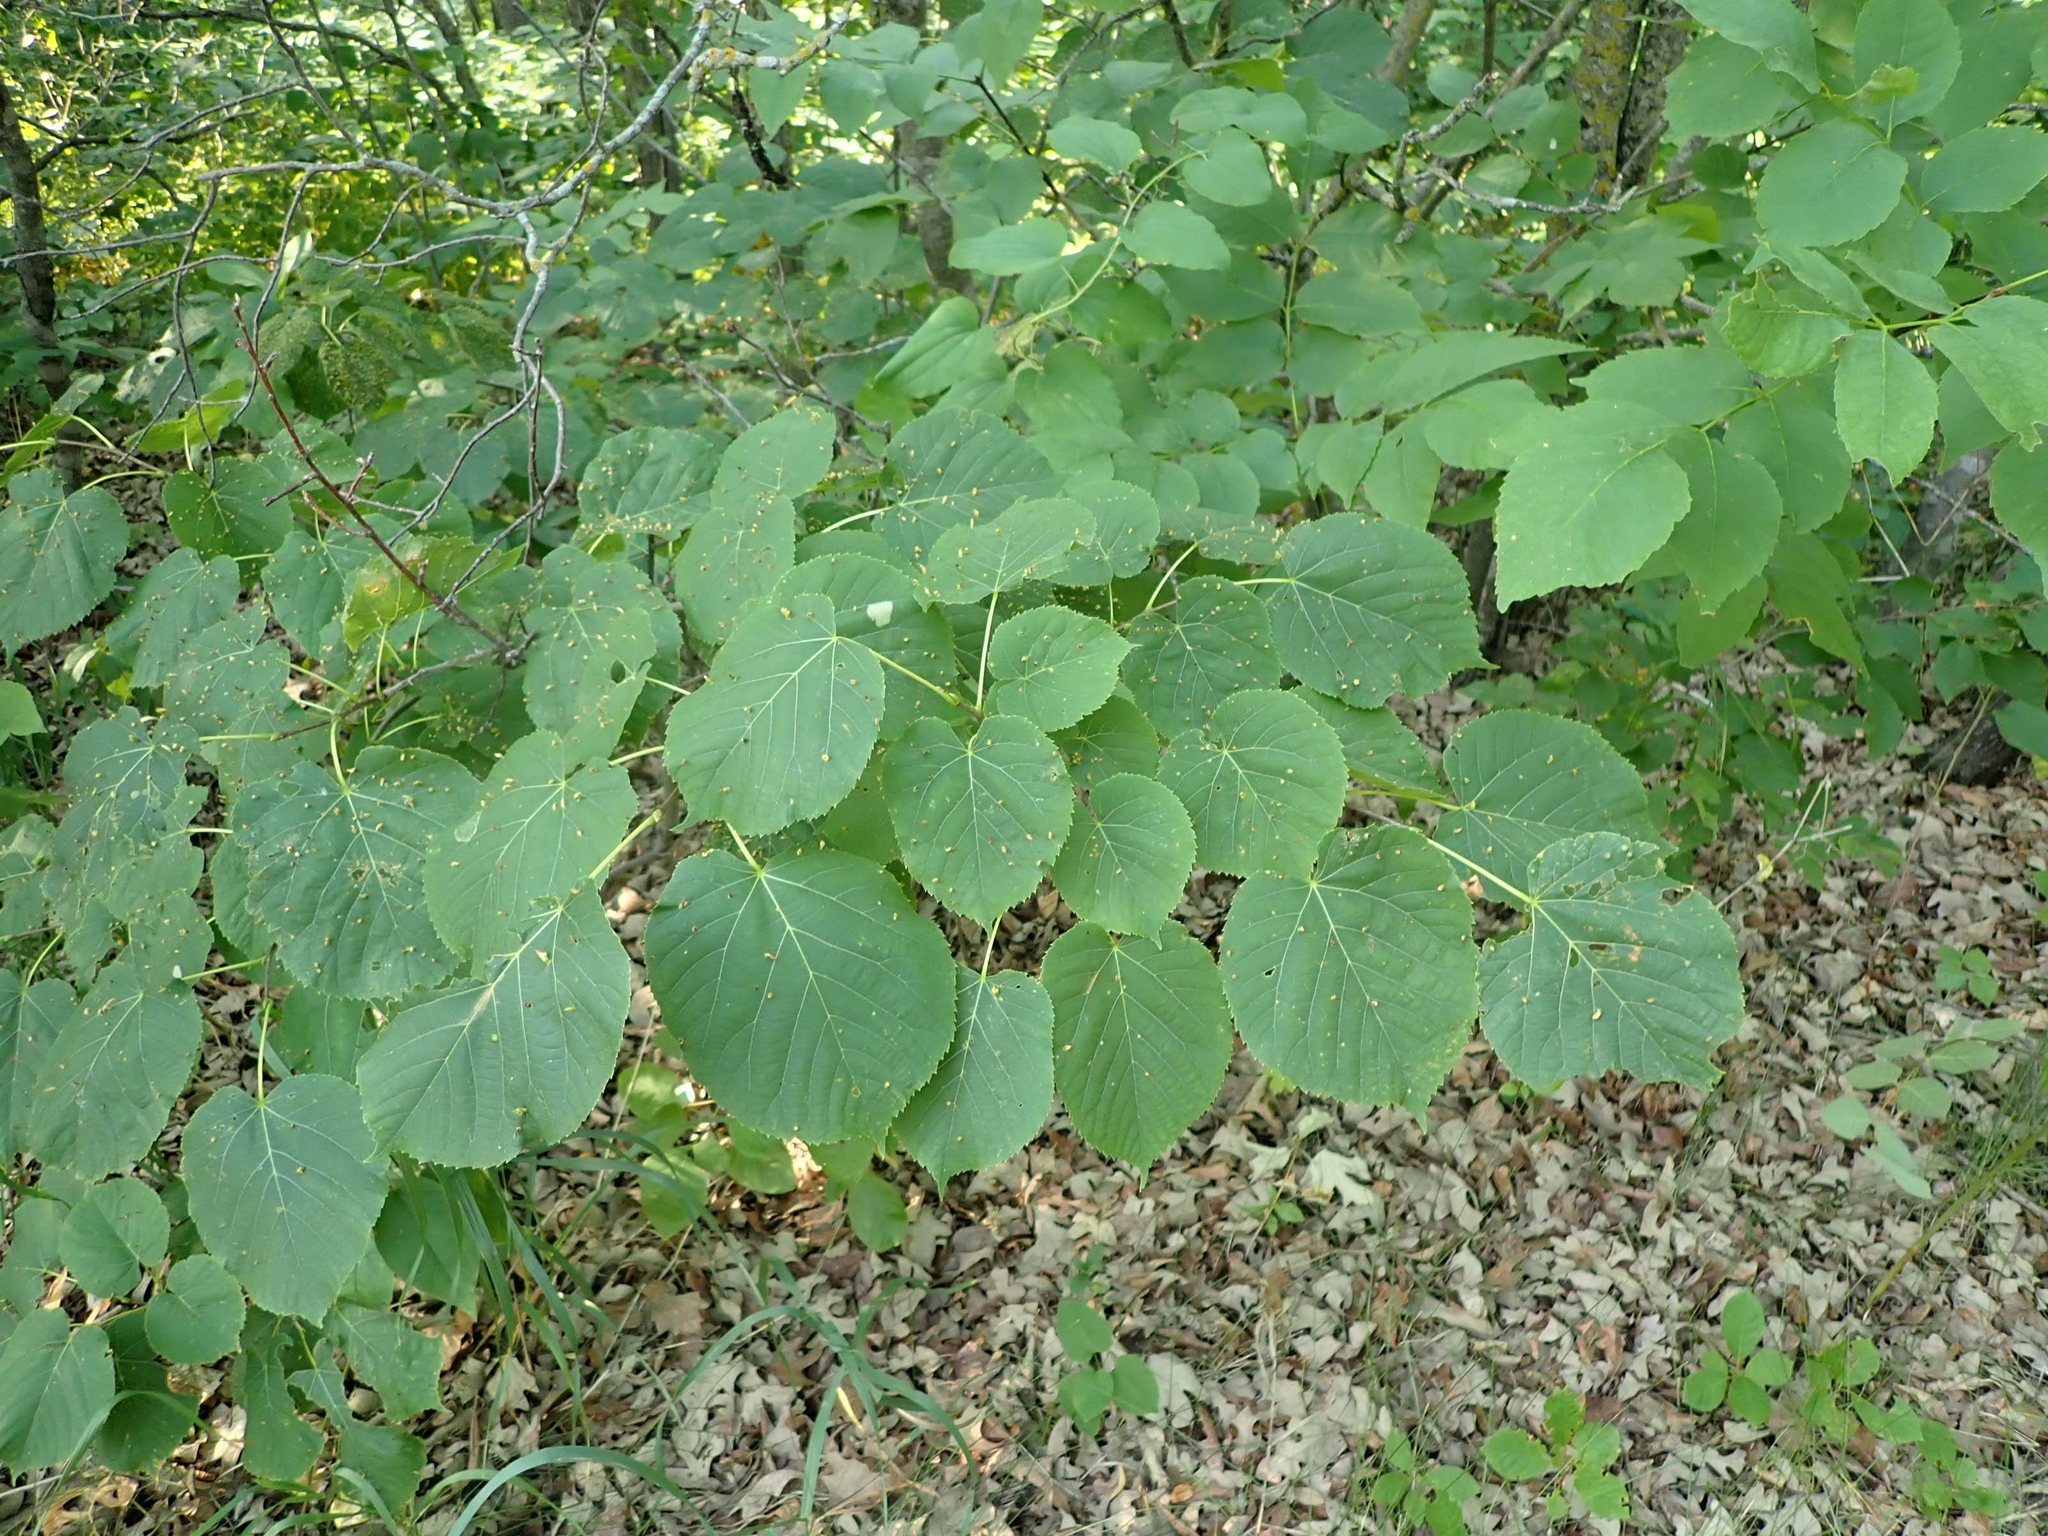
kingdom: Plantae
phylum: Tracheophyta
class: Magnoliopsida
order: Malvales
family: Malvaceae
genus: Tilia
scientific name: Tilia americana
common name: Basswood
